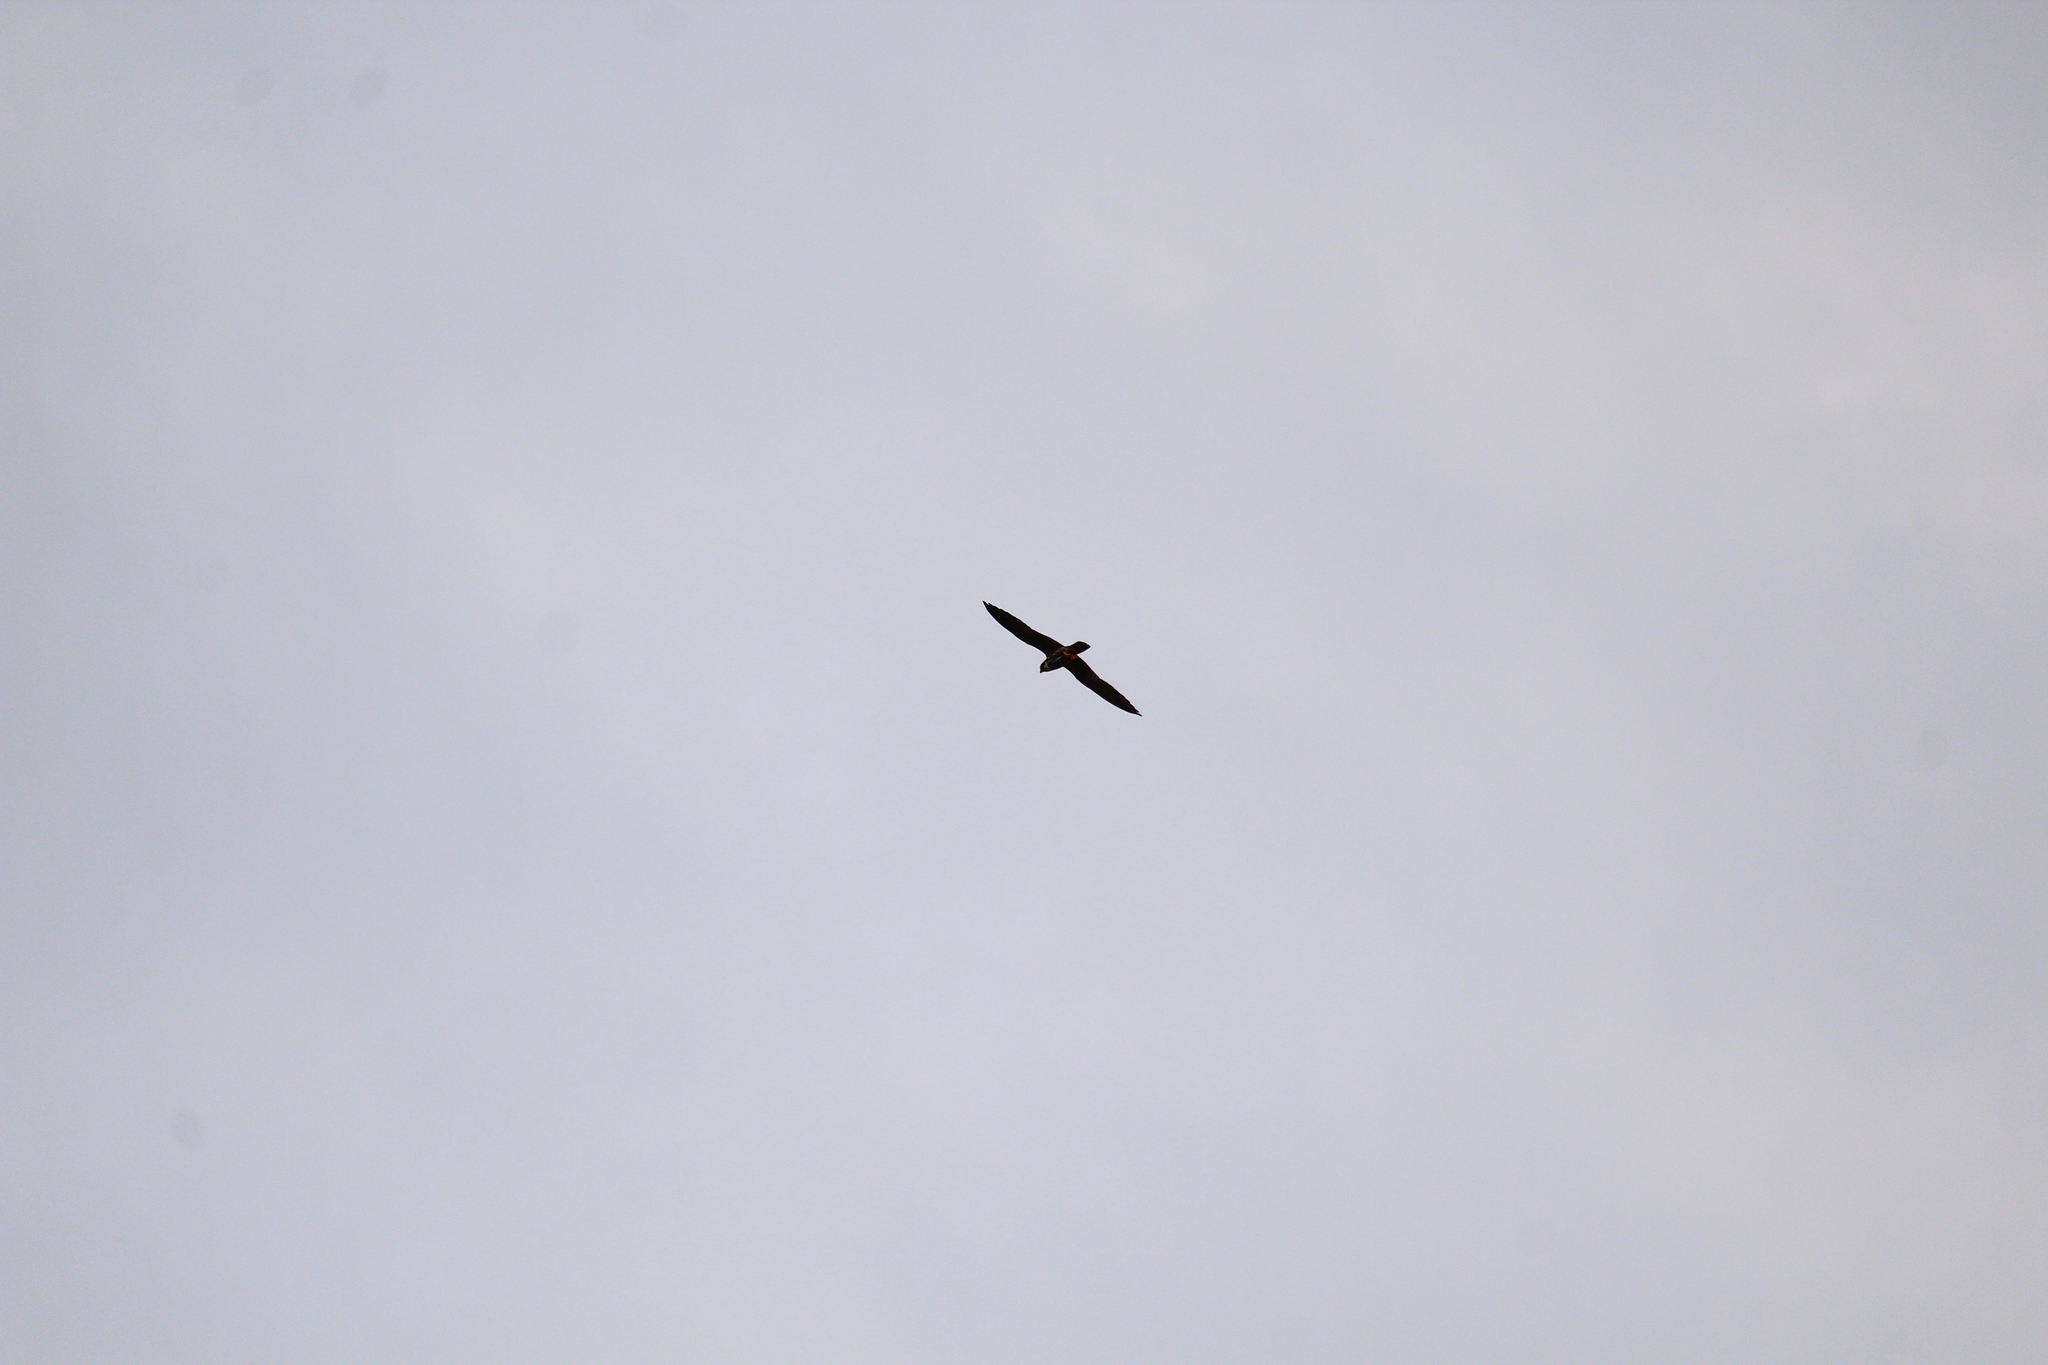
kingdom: Animalia
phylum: Chordata
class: Aves
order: Falconiformes
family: Falconidae
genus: Falco
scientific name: Falco subbuteo
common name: Eurasian hobby
